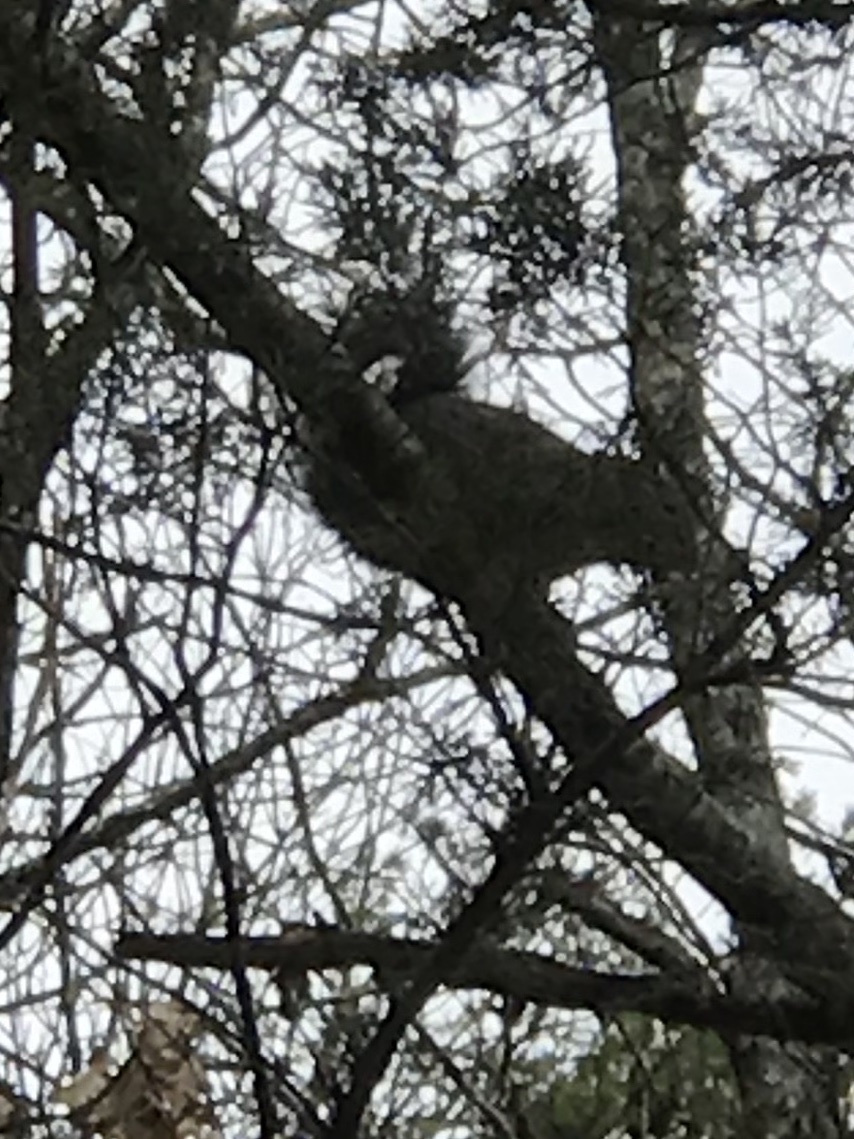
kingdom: Animalia
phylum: Chordata
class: Mammalia
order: Rodentia
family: Sciuridae
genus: Sciurus
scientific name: Sciurus carolinensis
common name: Eastern gray squirrel
